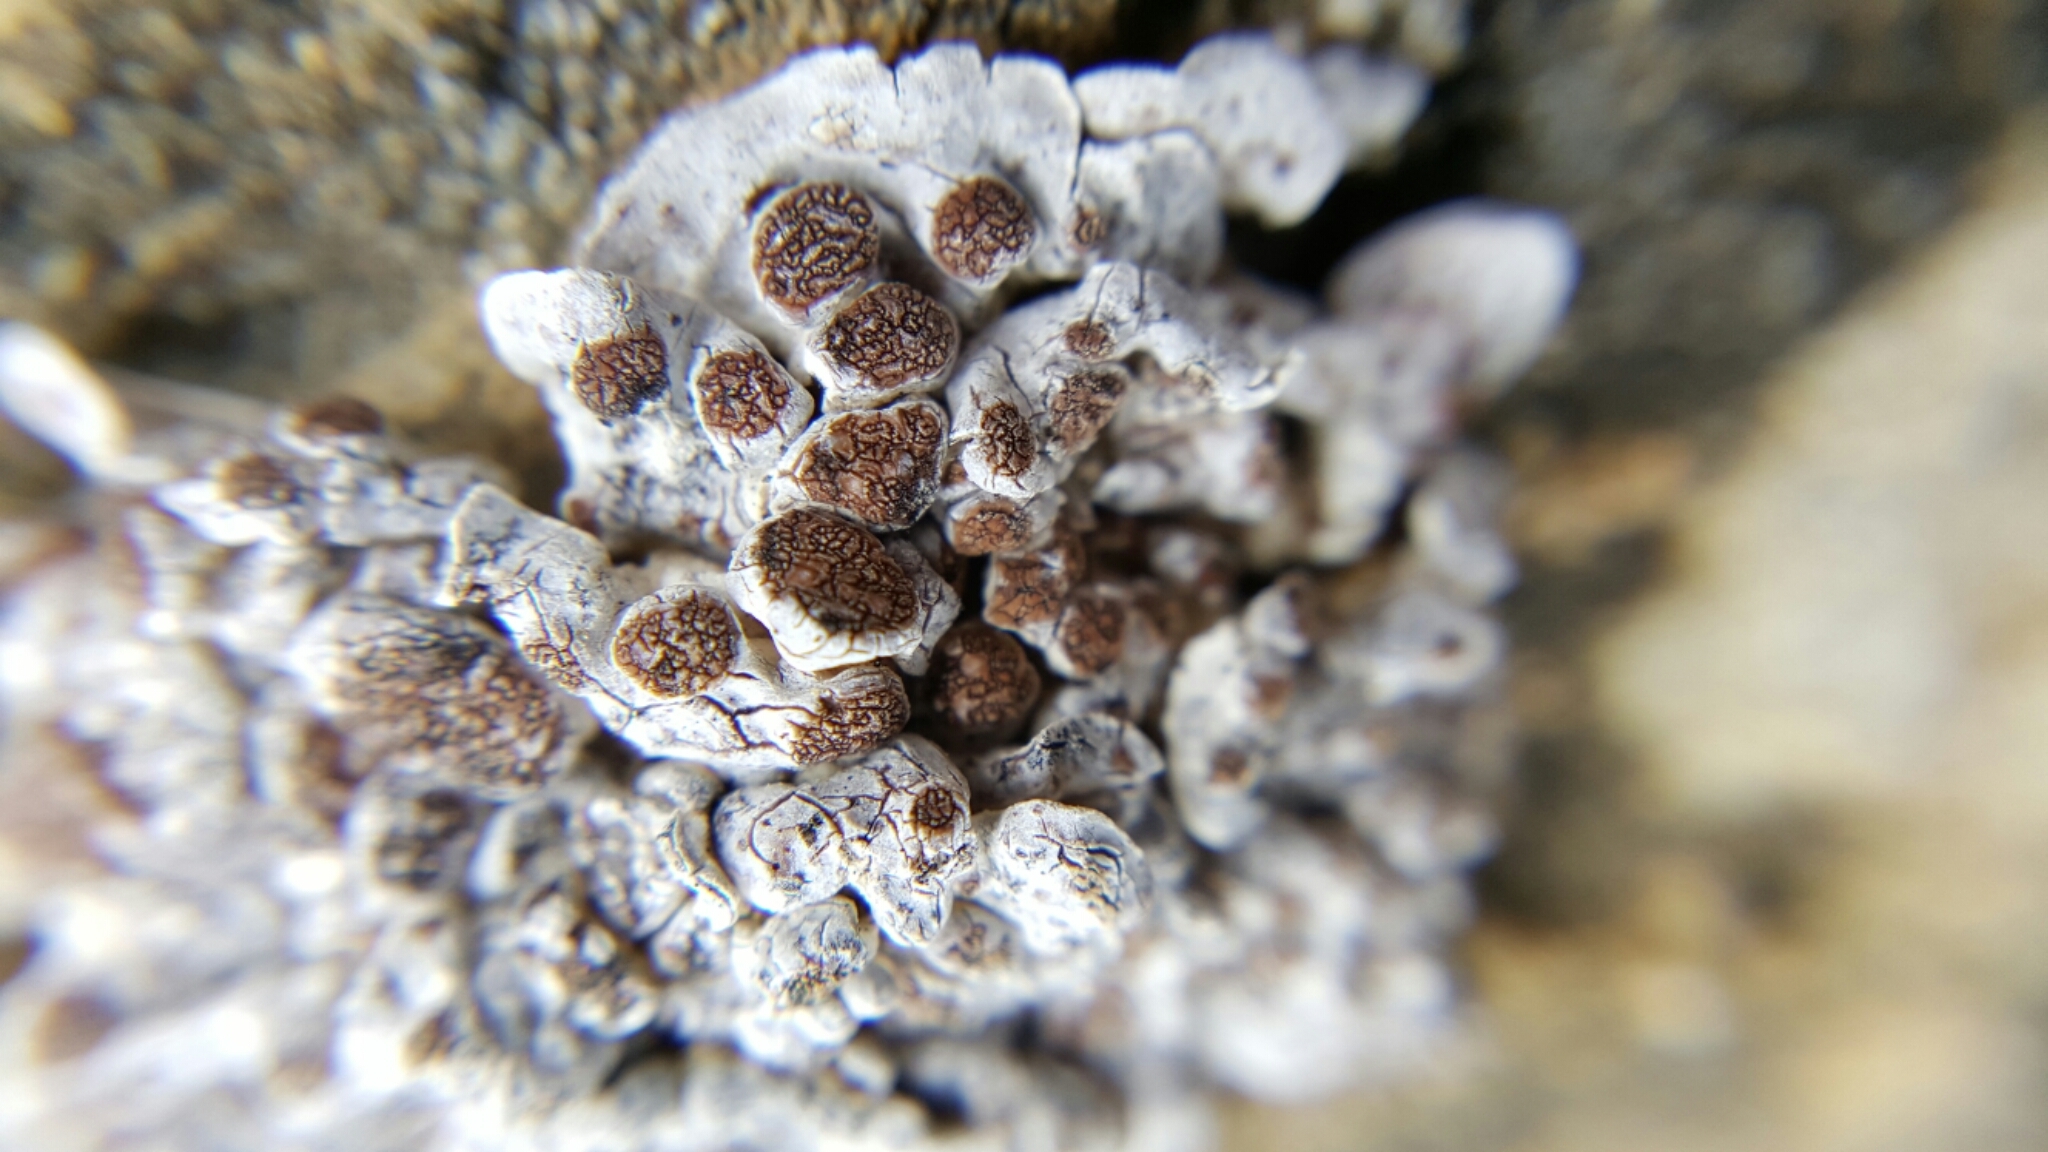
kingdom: Fungi
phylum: Ascomycota
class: Lecanoromycetes
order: Acarosporales
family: Acarosporaceae
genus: Glypholecia
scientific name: Glypholecia scabra
